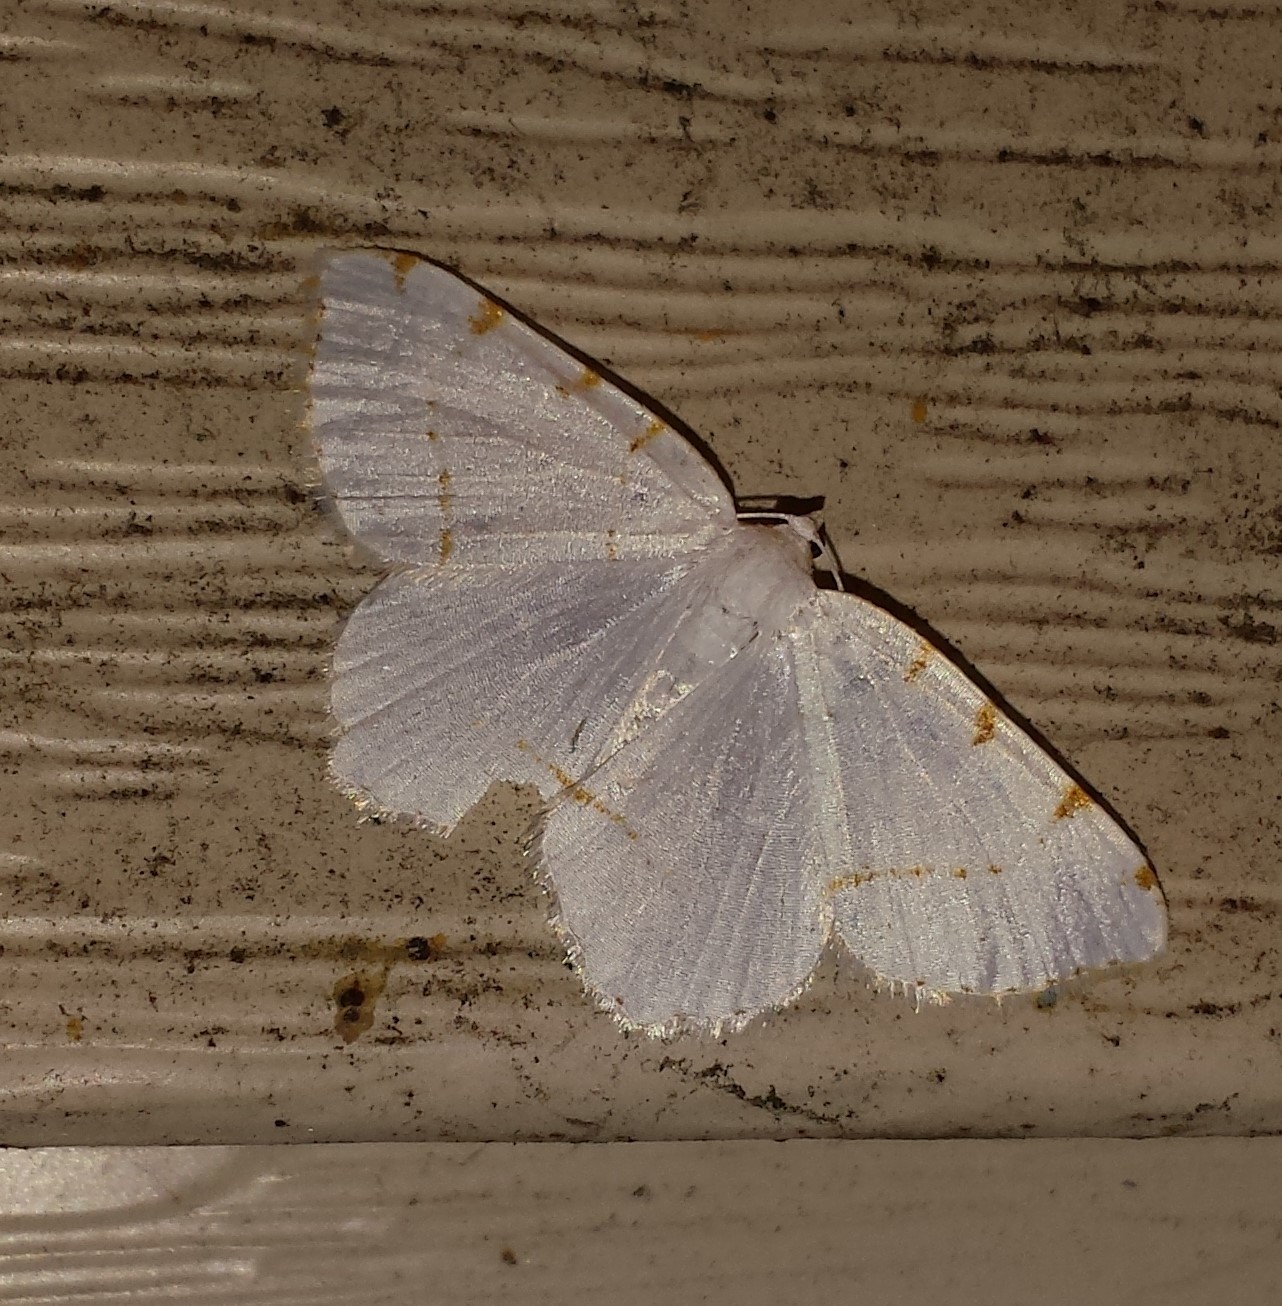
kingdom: Animalia
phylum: Arthropoda
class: Insecta
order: Lepidoptera
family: Geometridae
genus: Macaria
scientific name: Macaria pustularia
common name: Lesser maple spanworm moth
